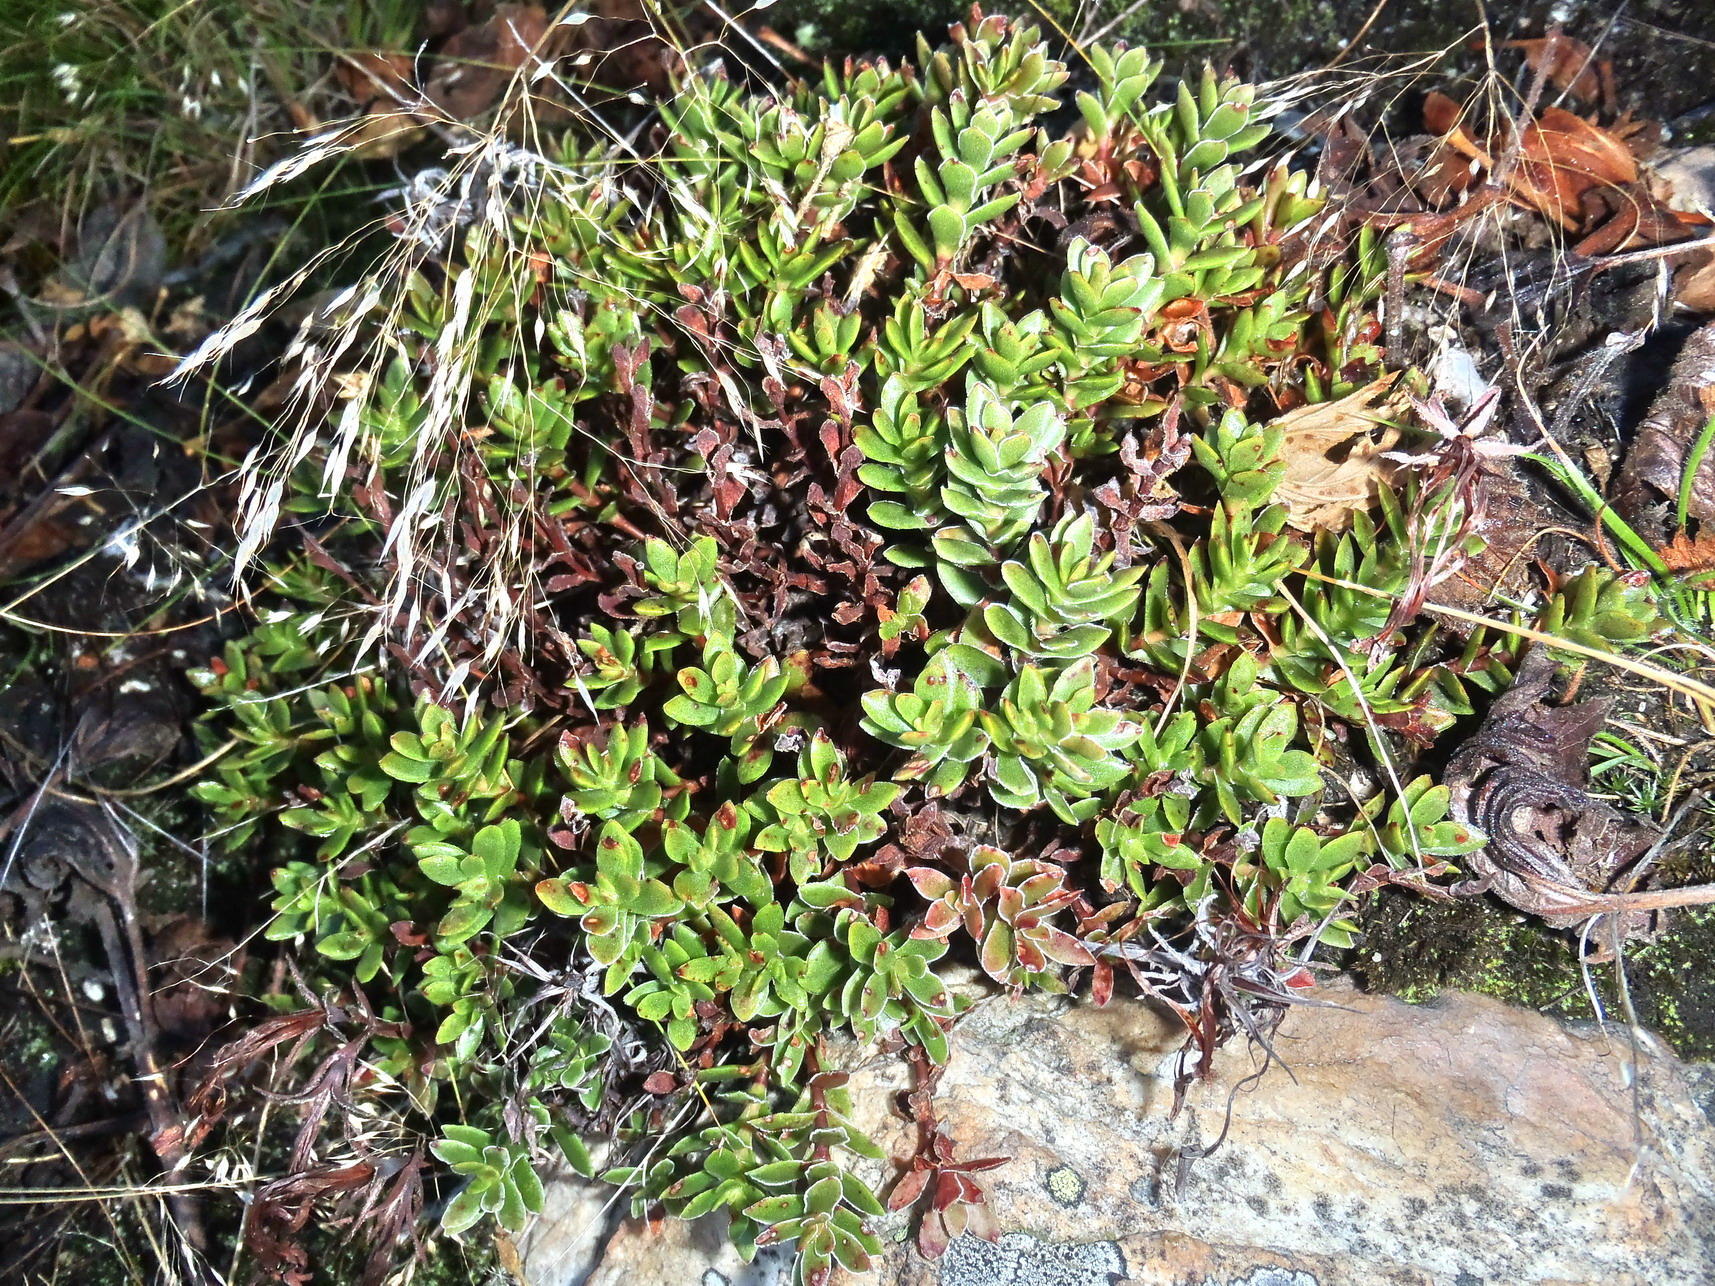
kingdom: Plantae
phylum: Tracheophyta
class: Magnoliopsida
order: Saxifragales
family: Crassulaceae
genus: Crassula
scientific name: Crassula obtusa
